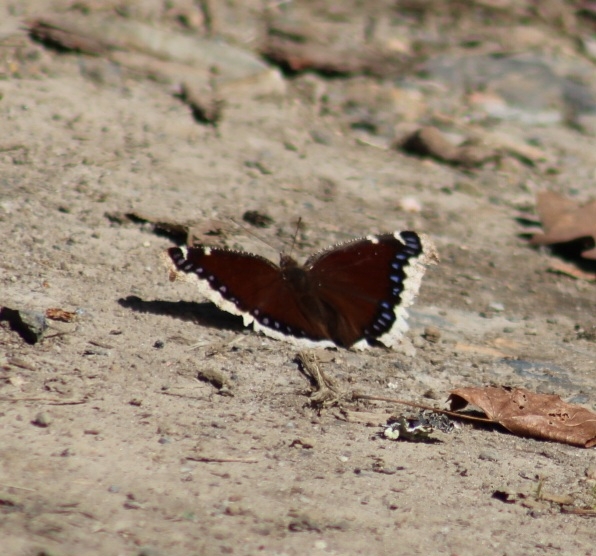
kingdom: Animalia
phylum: Arthropoda
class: Insecta
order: Lepidoptera
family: Nymphalidae
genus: Nymphalis
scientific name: Nymphalis antiopa
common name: Camberwell beauty
